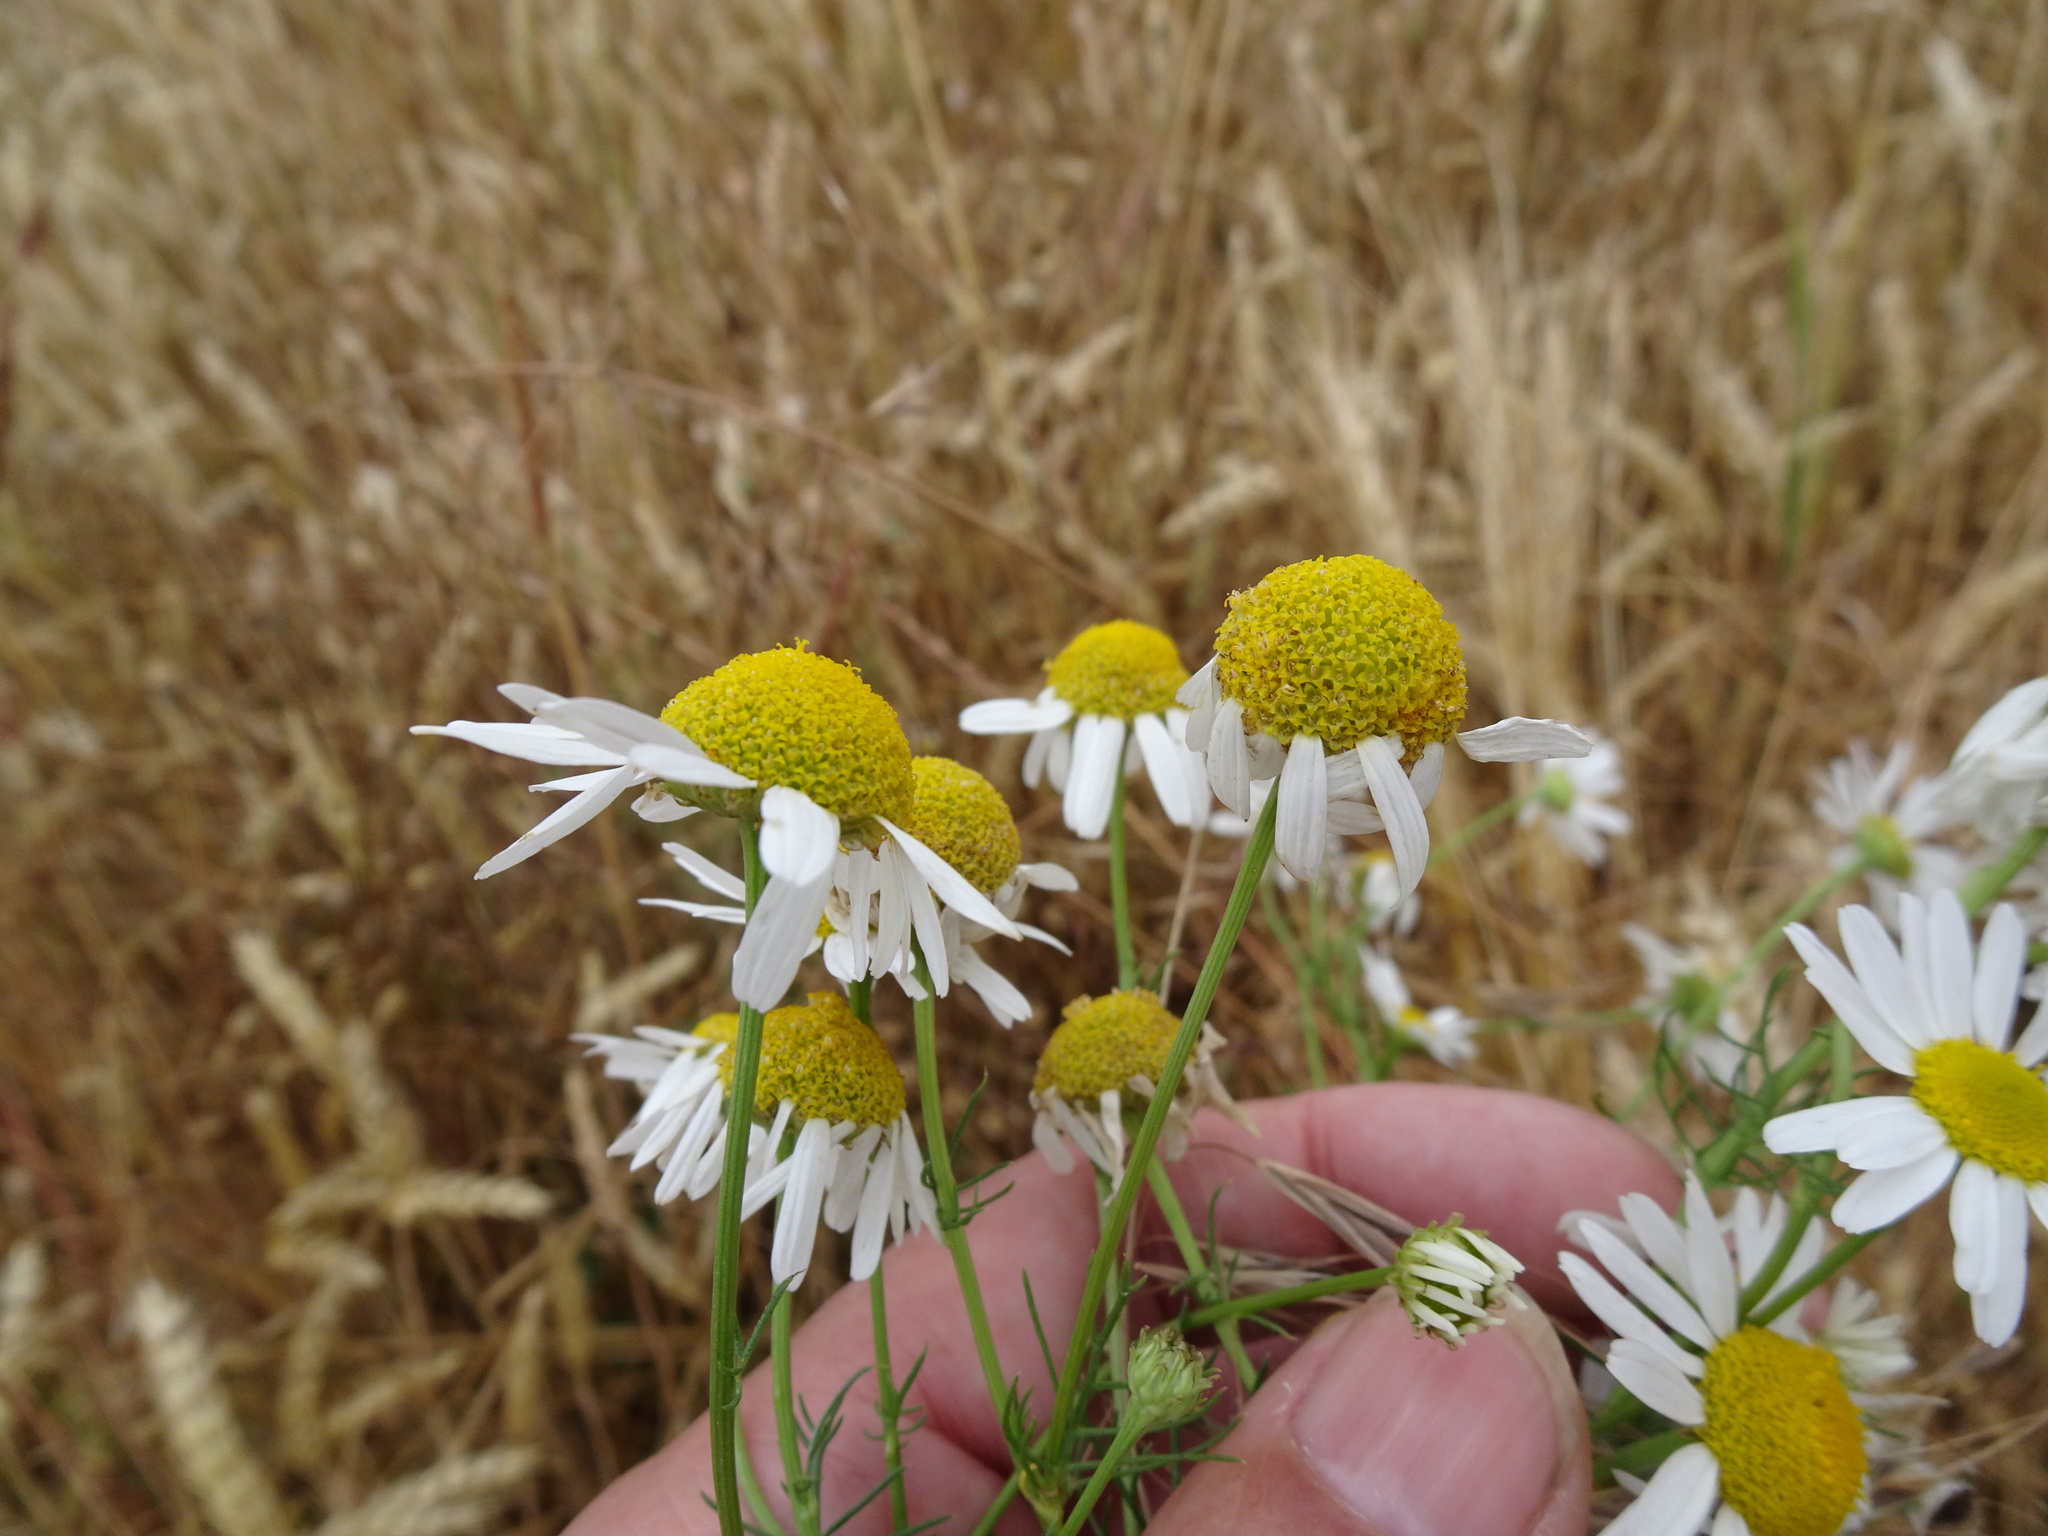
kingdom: Plantae
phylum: Tracheophyta
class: Magnoliopsida
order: Asterales
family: Asteraceae
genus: Matricaria
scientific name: Matricaria chamomilla
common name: Scented mayweed
